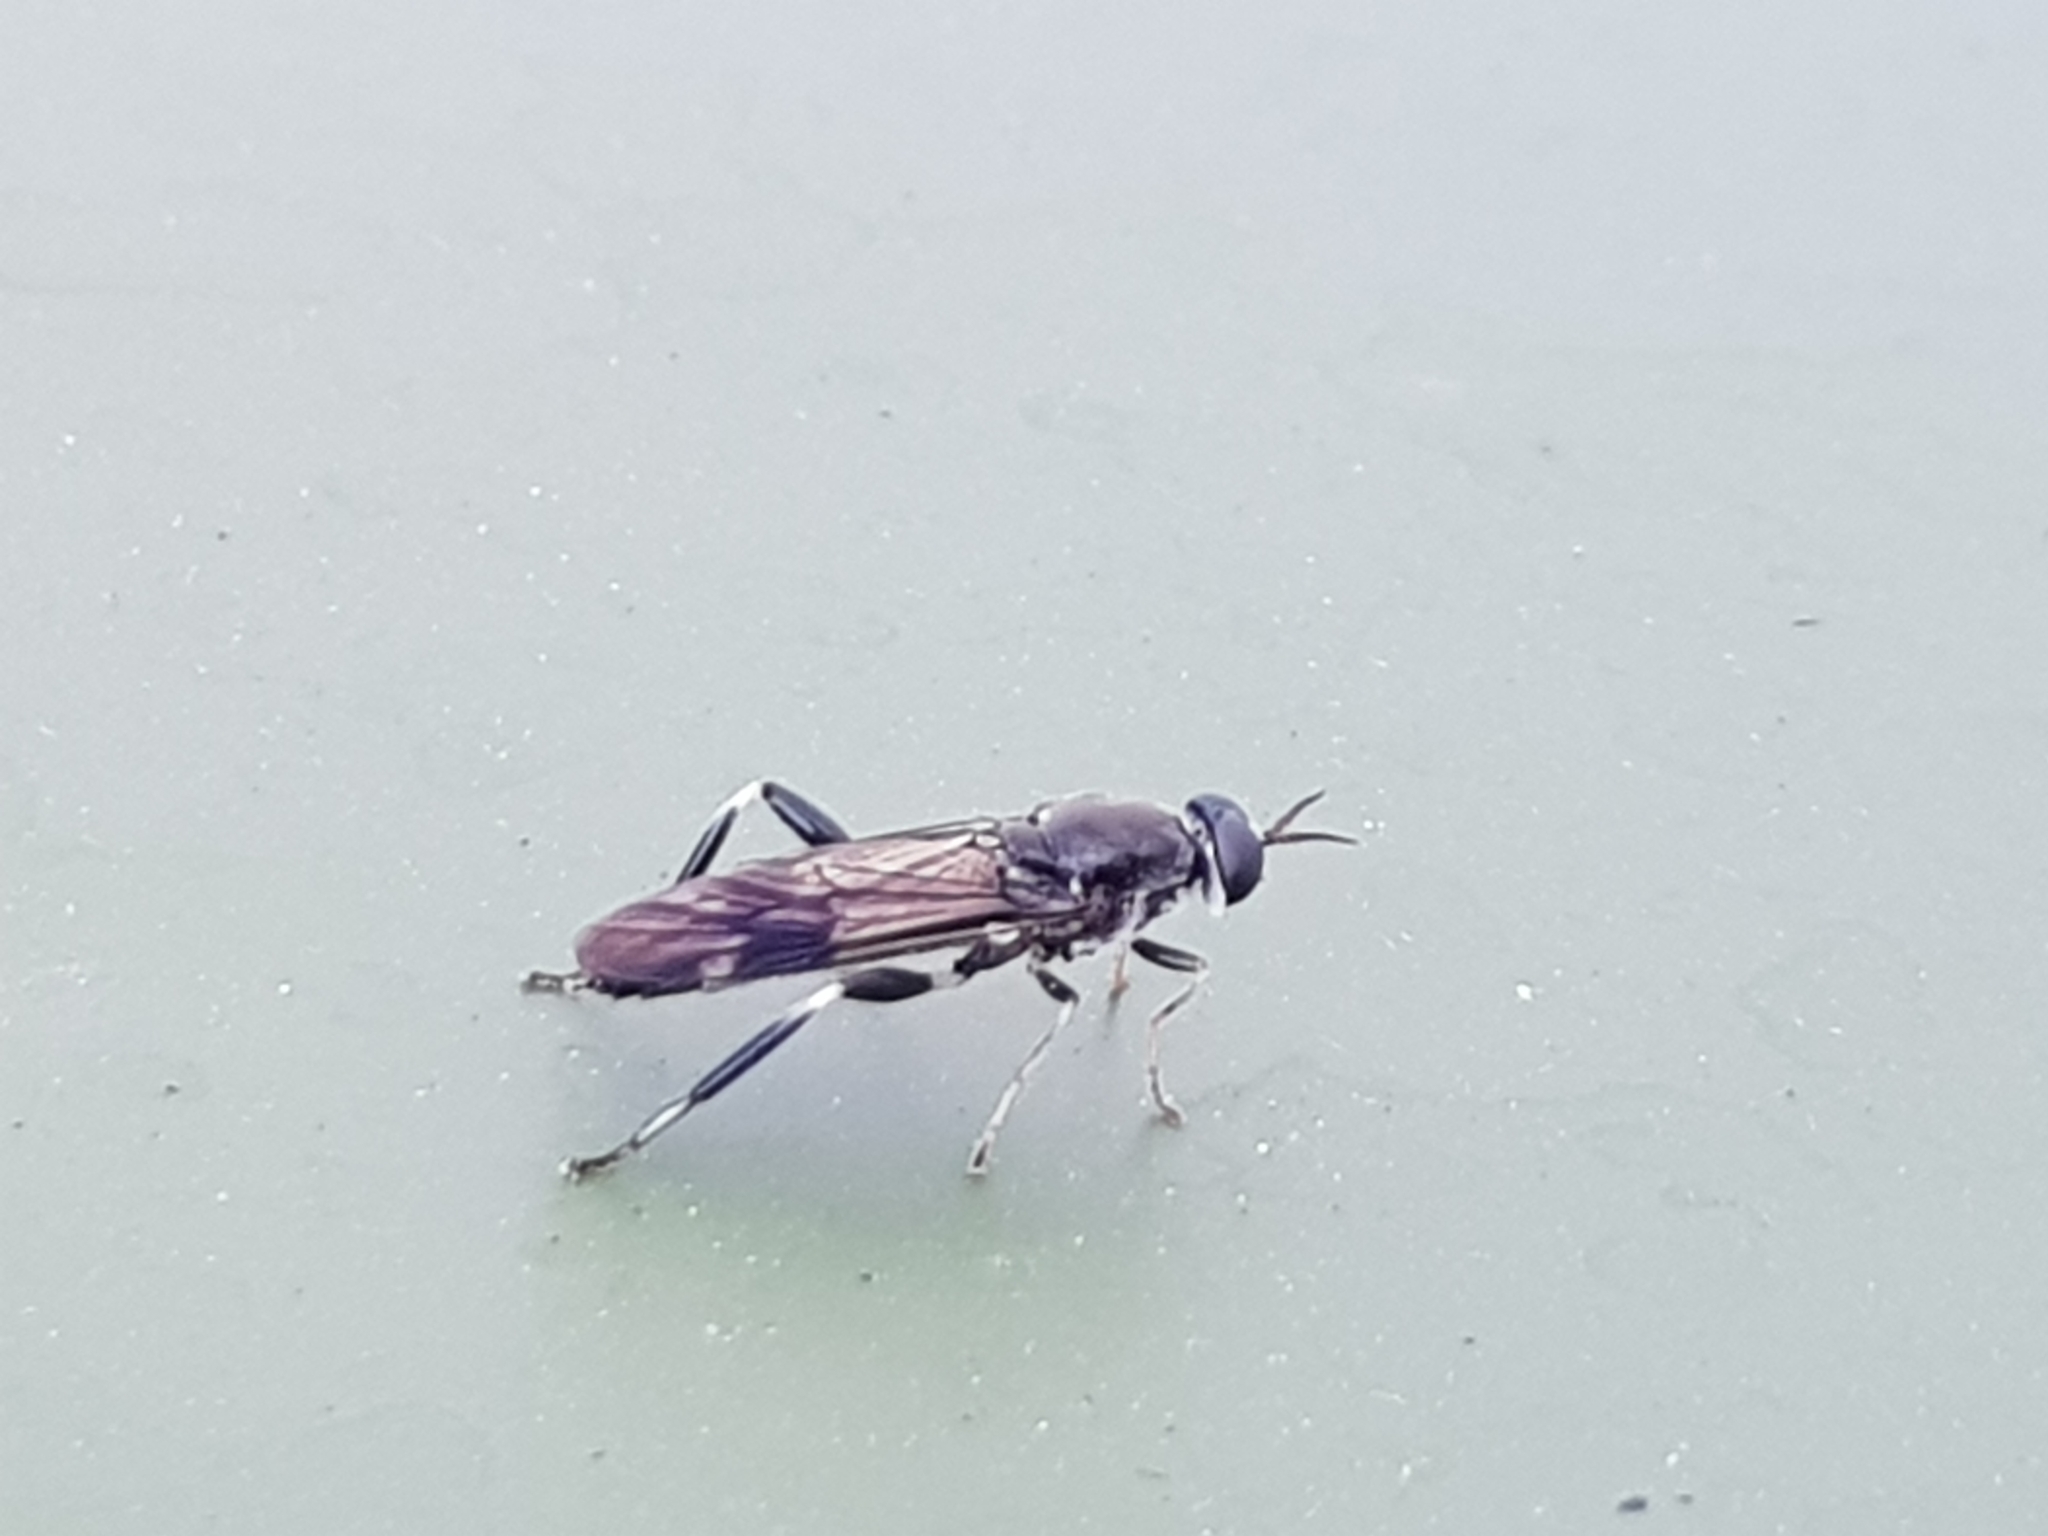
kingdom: Animalia
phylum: Arthropoda
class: Insecta
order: Diptera
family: Stratiomyidae
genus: Exaireta
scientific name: Exaireta spinigera
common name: Blue soldier fly
